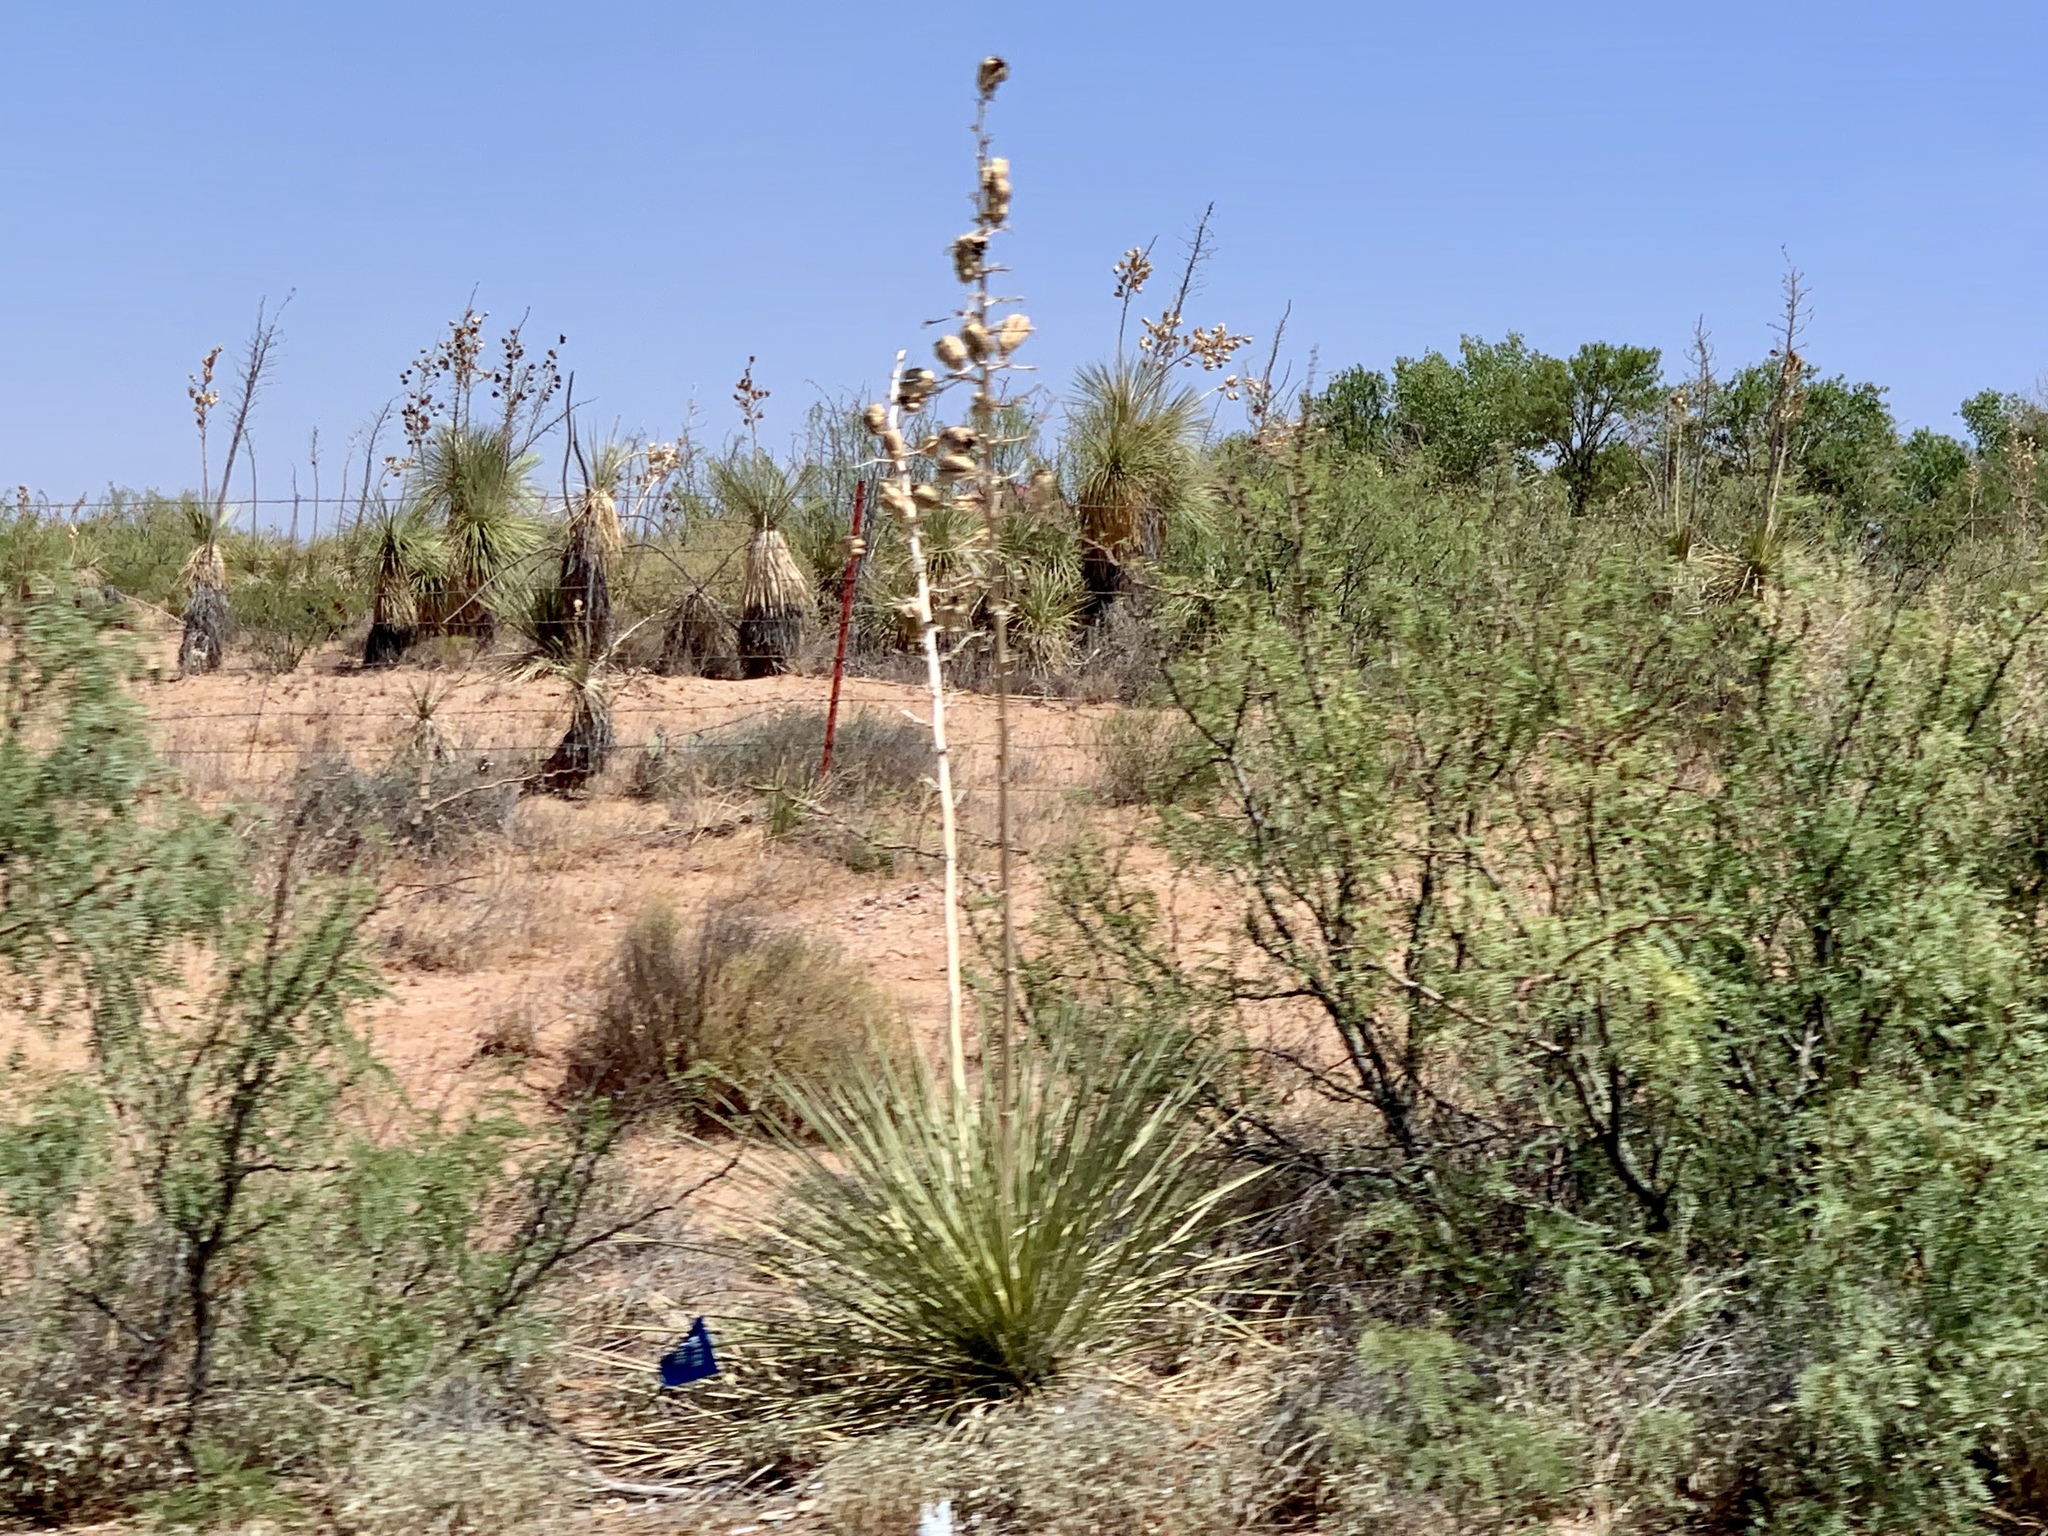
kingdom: Plantae
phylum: Tracheophyta
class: Liliopsida
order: Asparagales
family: Asparagaceae
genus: Yucca
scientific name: Yucca elata
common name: Palmella
